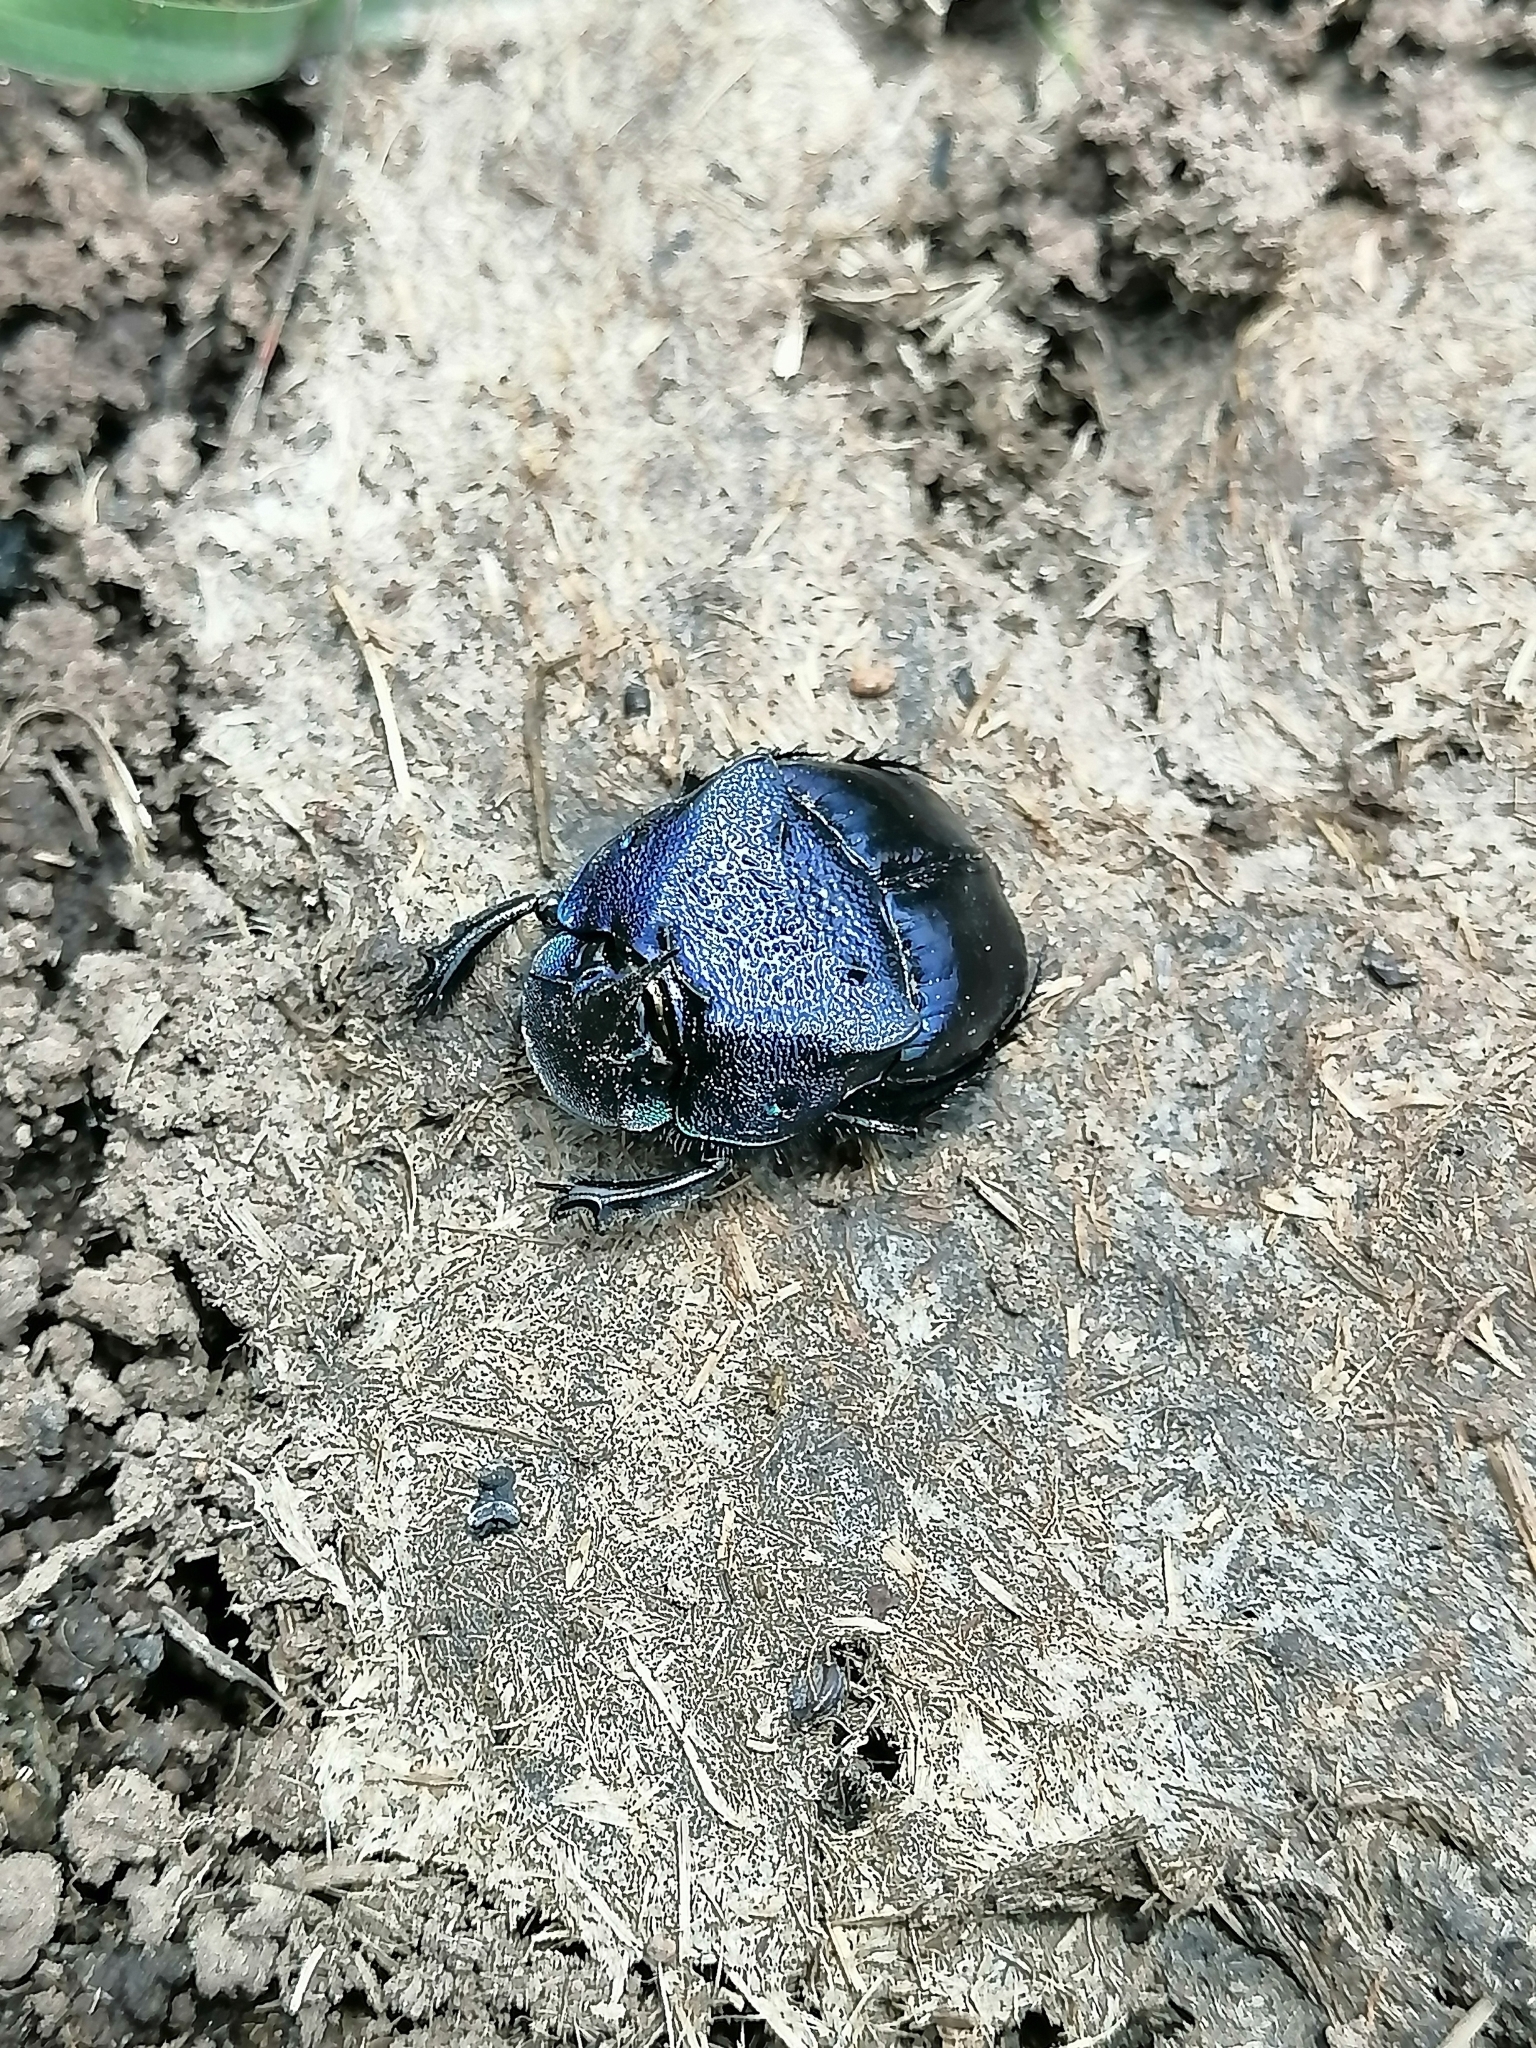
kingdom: Animalia
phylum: Arthropoda
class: Insecta
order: Coleoptera
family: Scarabaeidae
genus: Phanaeus
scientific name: Phanaeus quadridens
